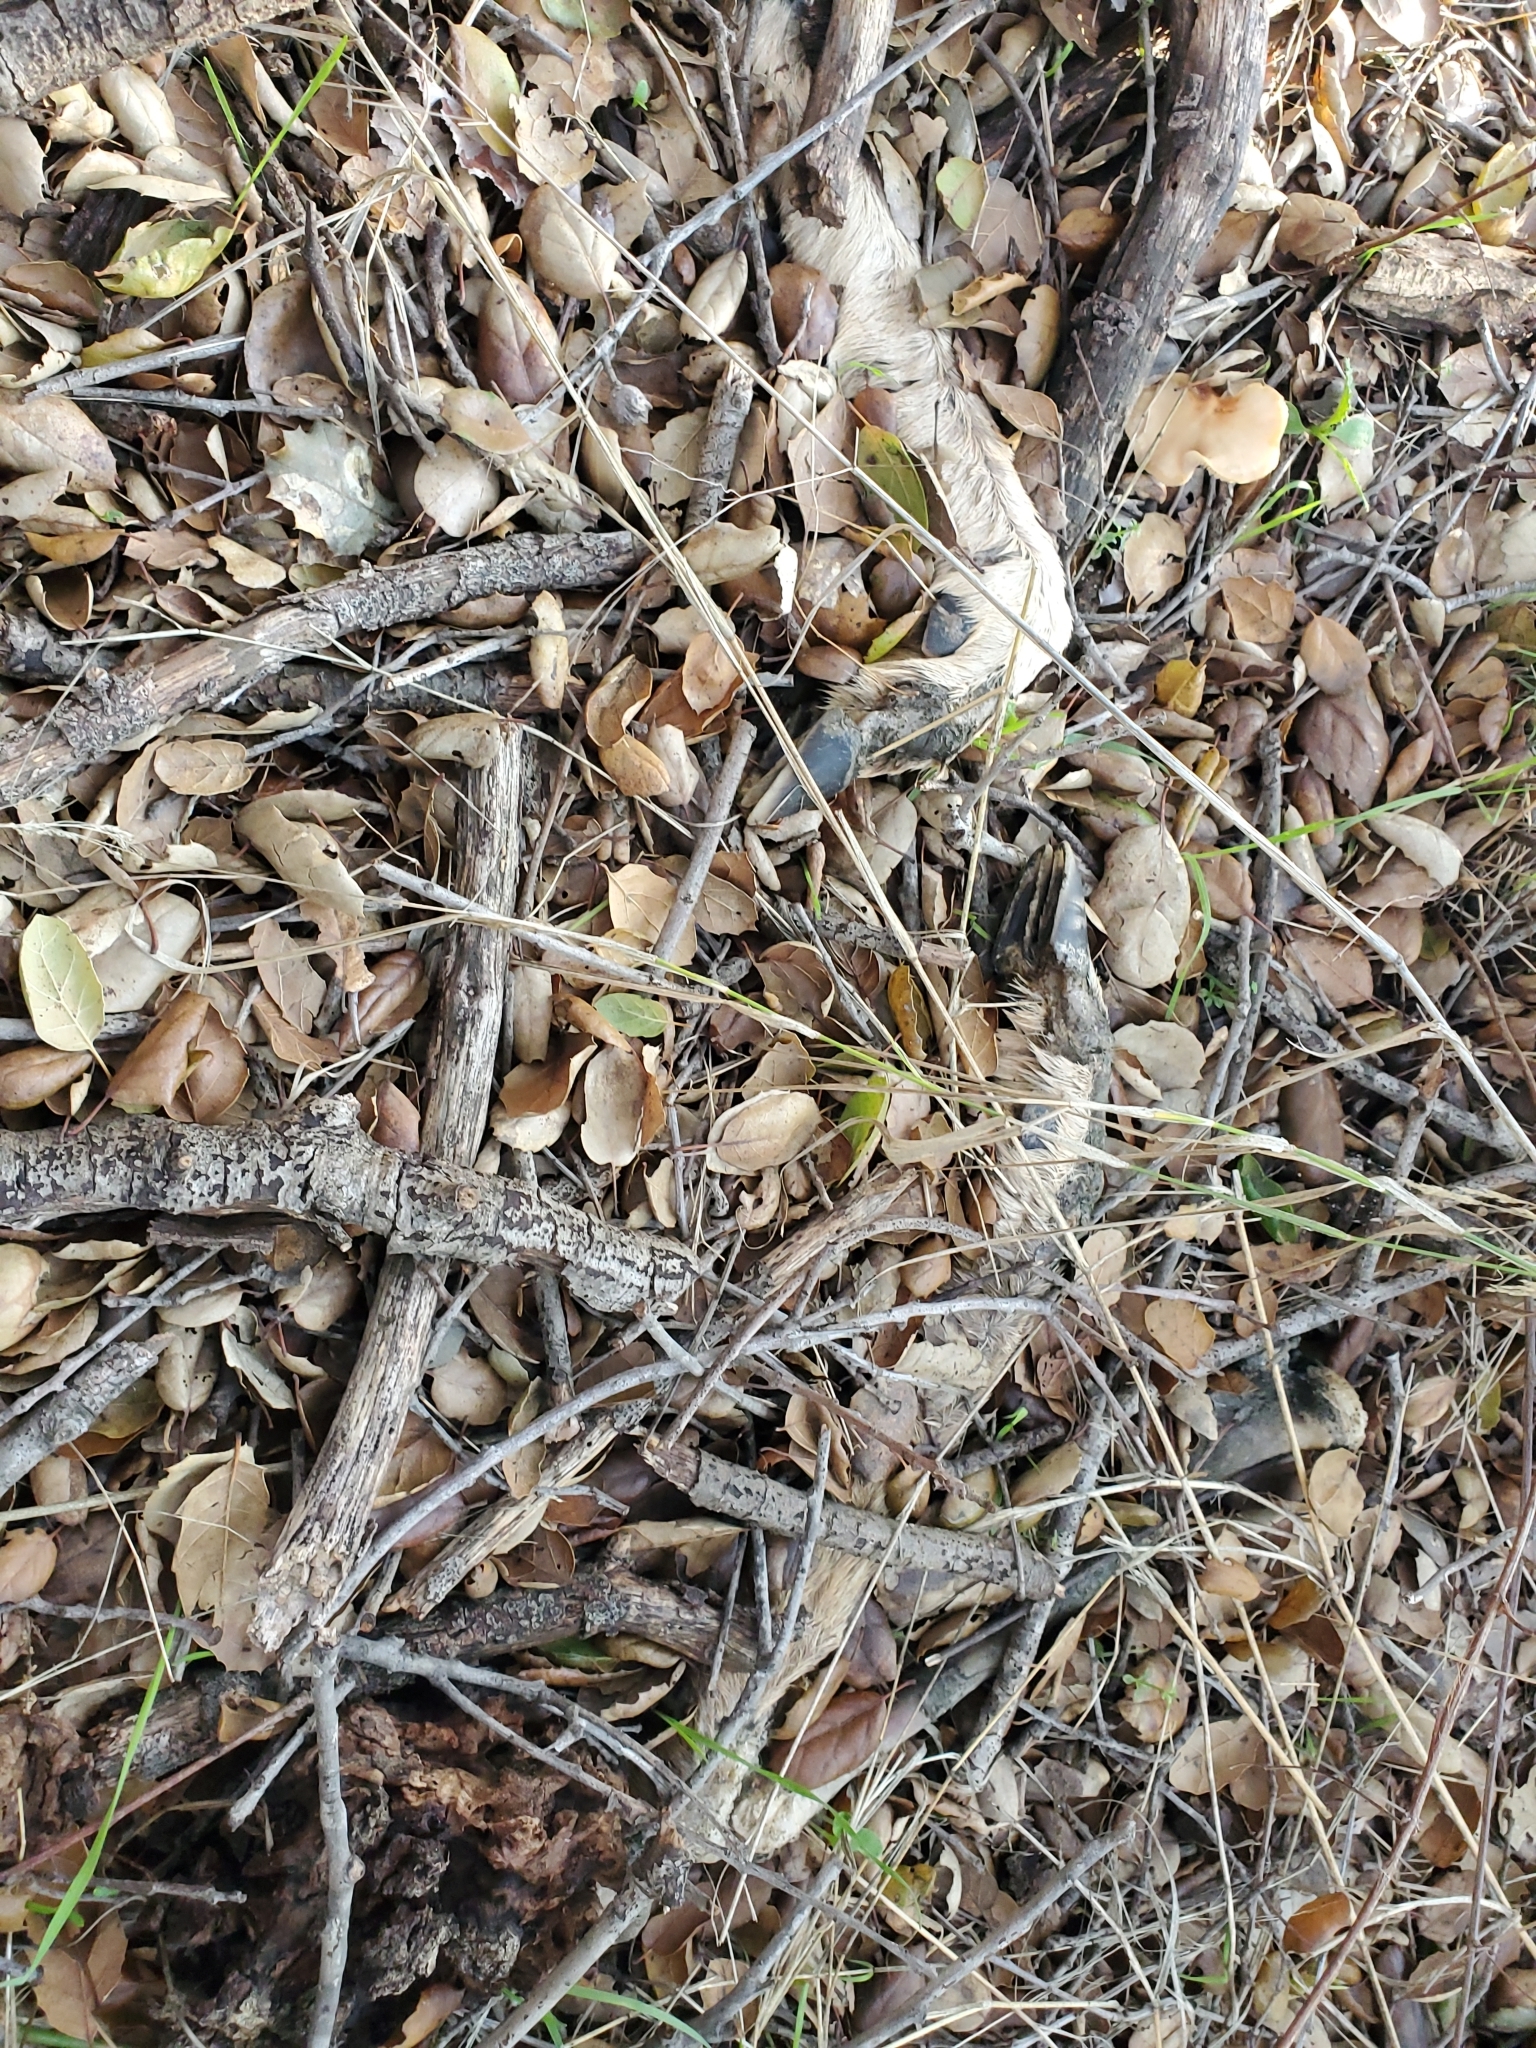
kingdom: Animalia
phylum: Chordata
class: Mammalia
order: Artiodactyla
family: Cervidae
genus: Odocoileus
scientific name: Odocoileus hemionus
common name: Mule deer
